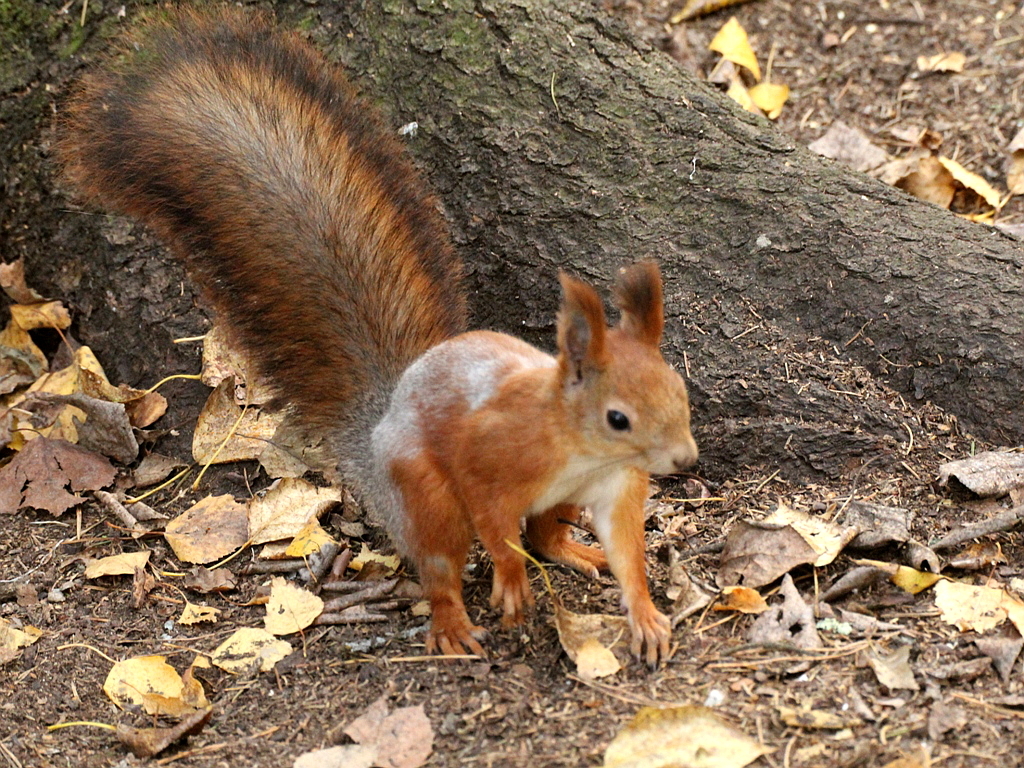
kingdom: Animalia
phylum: Chordata
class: Mammalia
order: Rodentia
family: Sciuridae
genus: Sciurus
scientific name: Sciurus vulgaris
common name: Eurasian red squirrel
